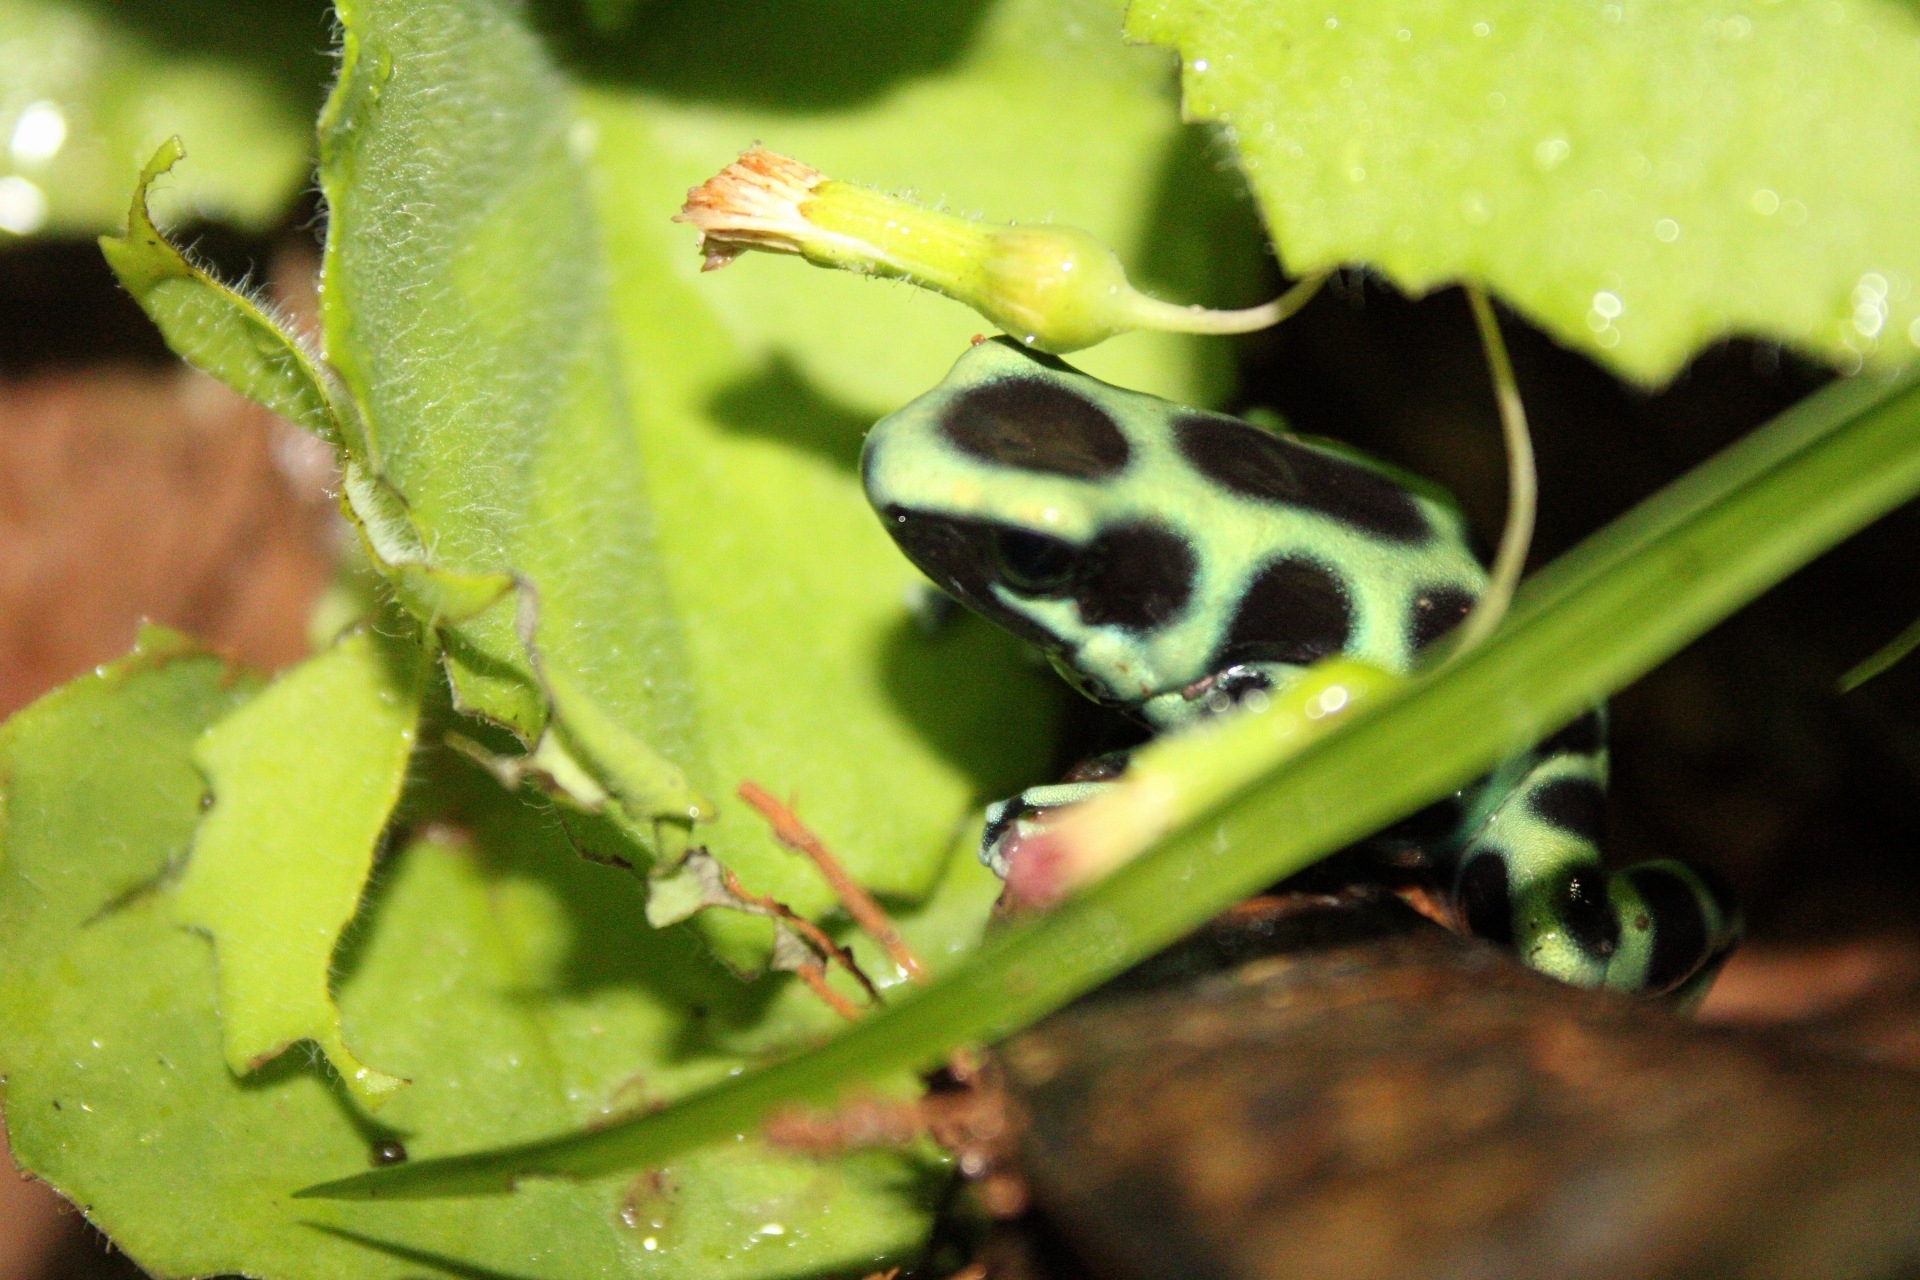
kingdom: Animalia
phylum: Chordata
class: Amphibia
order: Anura
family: Dendrobatidae
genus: Dendrobates
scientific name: Dendrobates auratus
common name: Green and black poison dart frog
